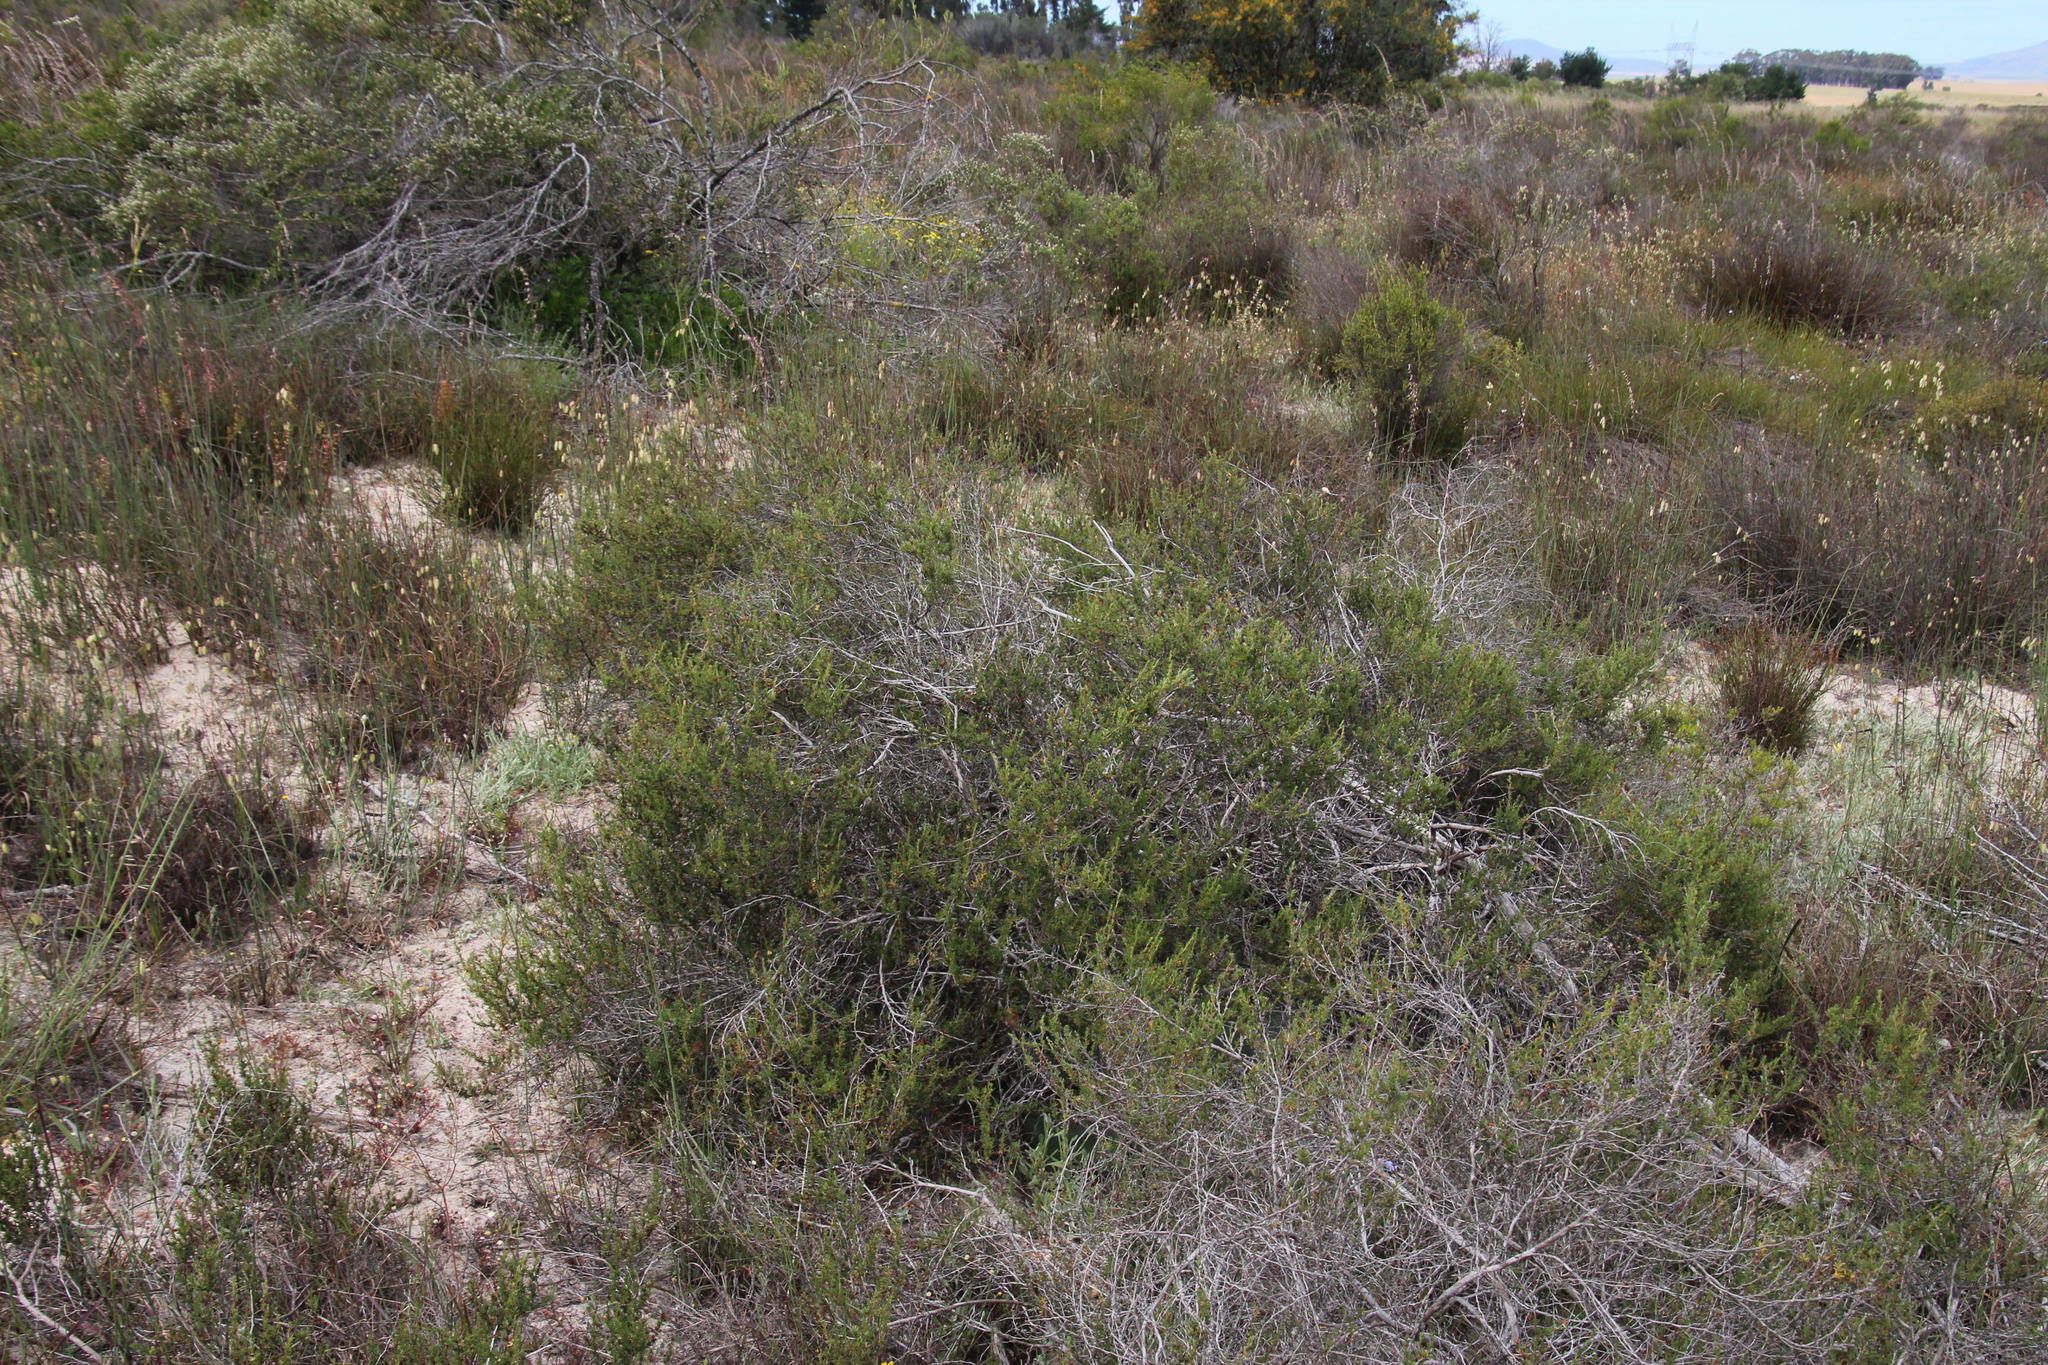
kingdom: Plantae
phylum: Tracheophyta
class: Magnoliopsida
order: Rosales
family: Rosaceae
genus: Cliffortia
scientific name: Cliffortia juniperina
